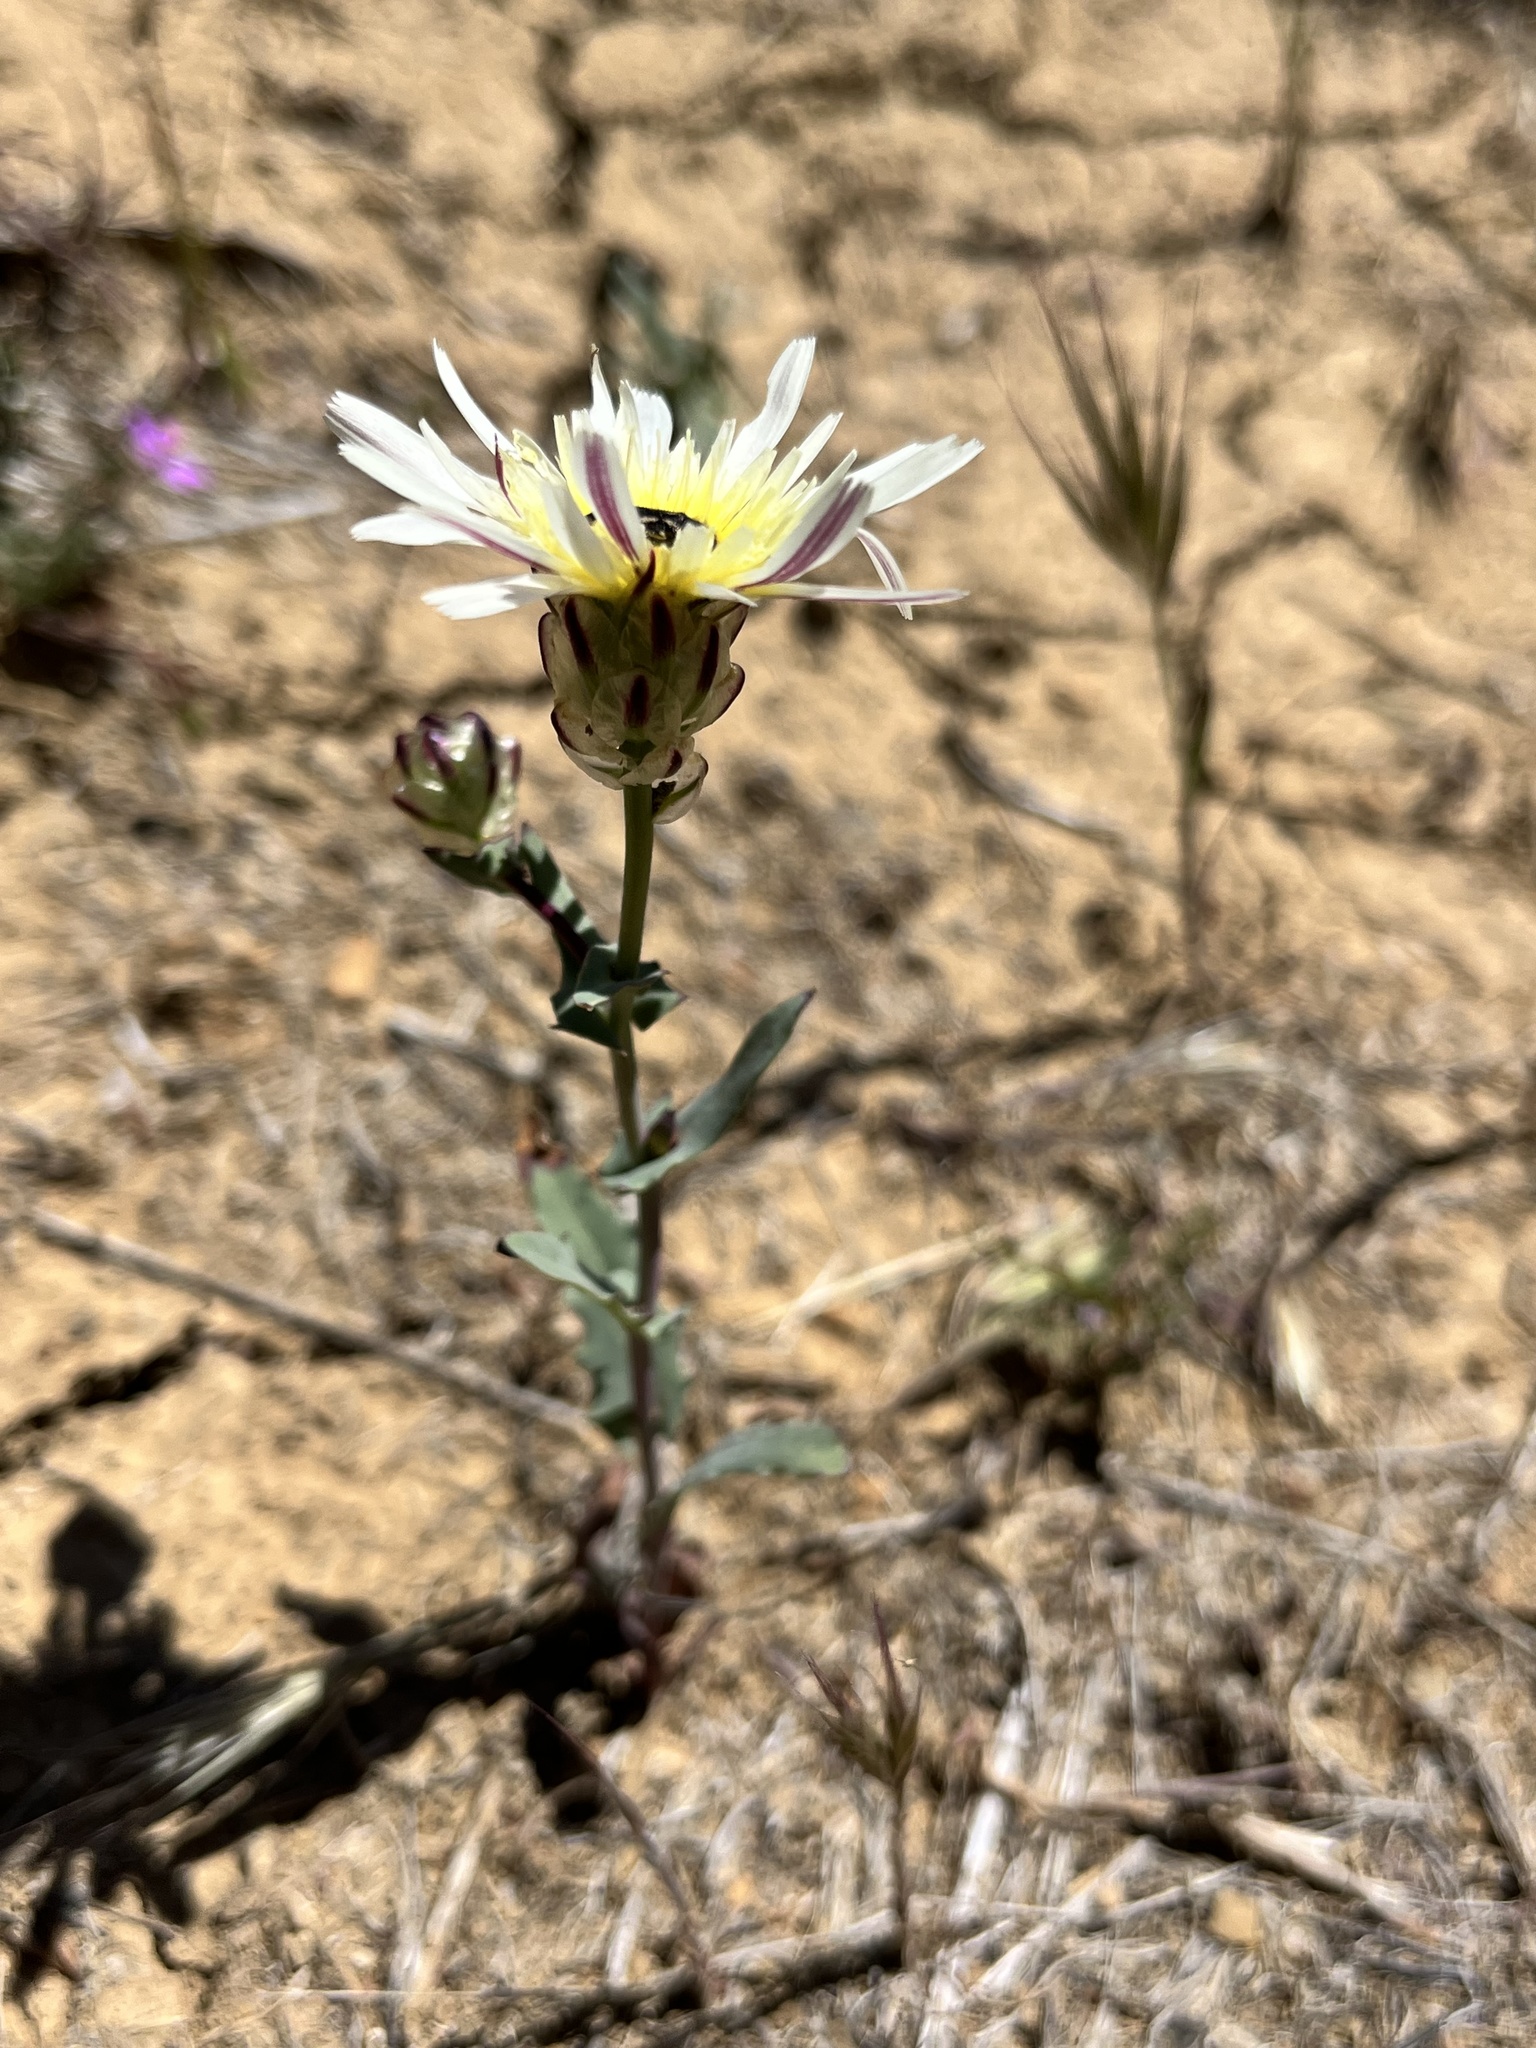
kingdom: Plantae
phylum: Tracheophyta
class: Magnoliopsida
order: Asterales
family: Asteraceae
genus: Malacothrix
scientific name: Malacothrix coulteri
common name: Snake's-head
